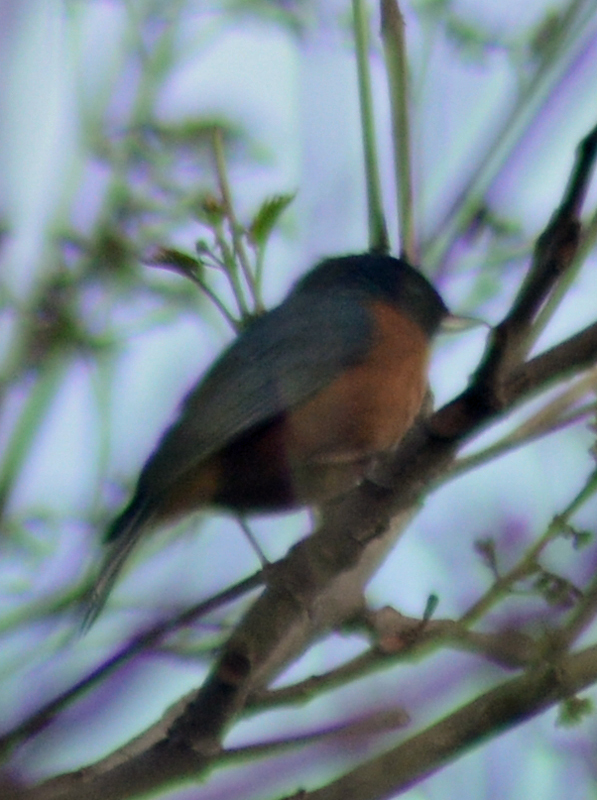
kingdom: Animalia
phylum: Chordata
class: Aves
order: Passeriformes
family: Thraupidae
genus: Diglossa
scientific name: Diglossa baritula
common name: Cinnamon-bellied flowerpiercer
